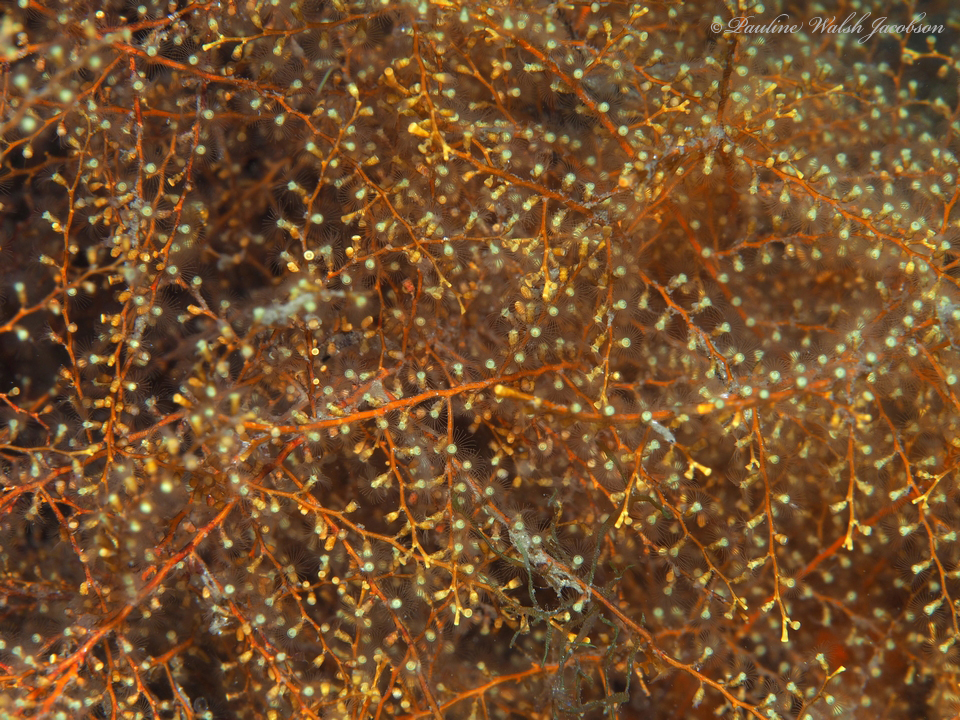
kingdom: Animalia
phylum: Cnidaria
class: Hydrozoa
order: Leptothecata
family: Thyroscyphidae
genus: Thyroscyphus
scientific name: Thyroscyphus ramosus
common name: Algae hydroid
